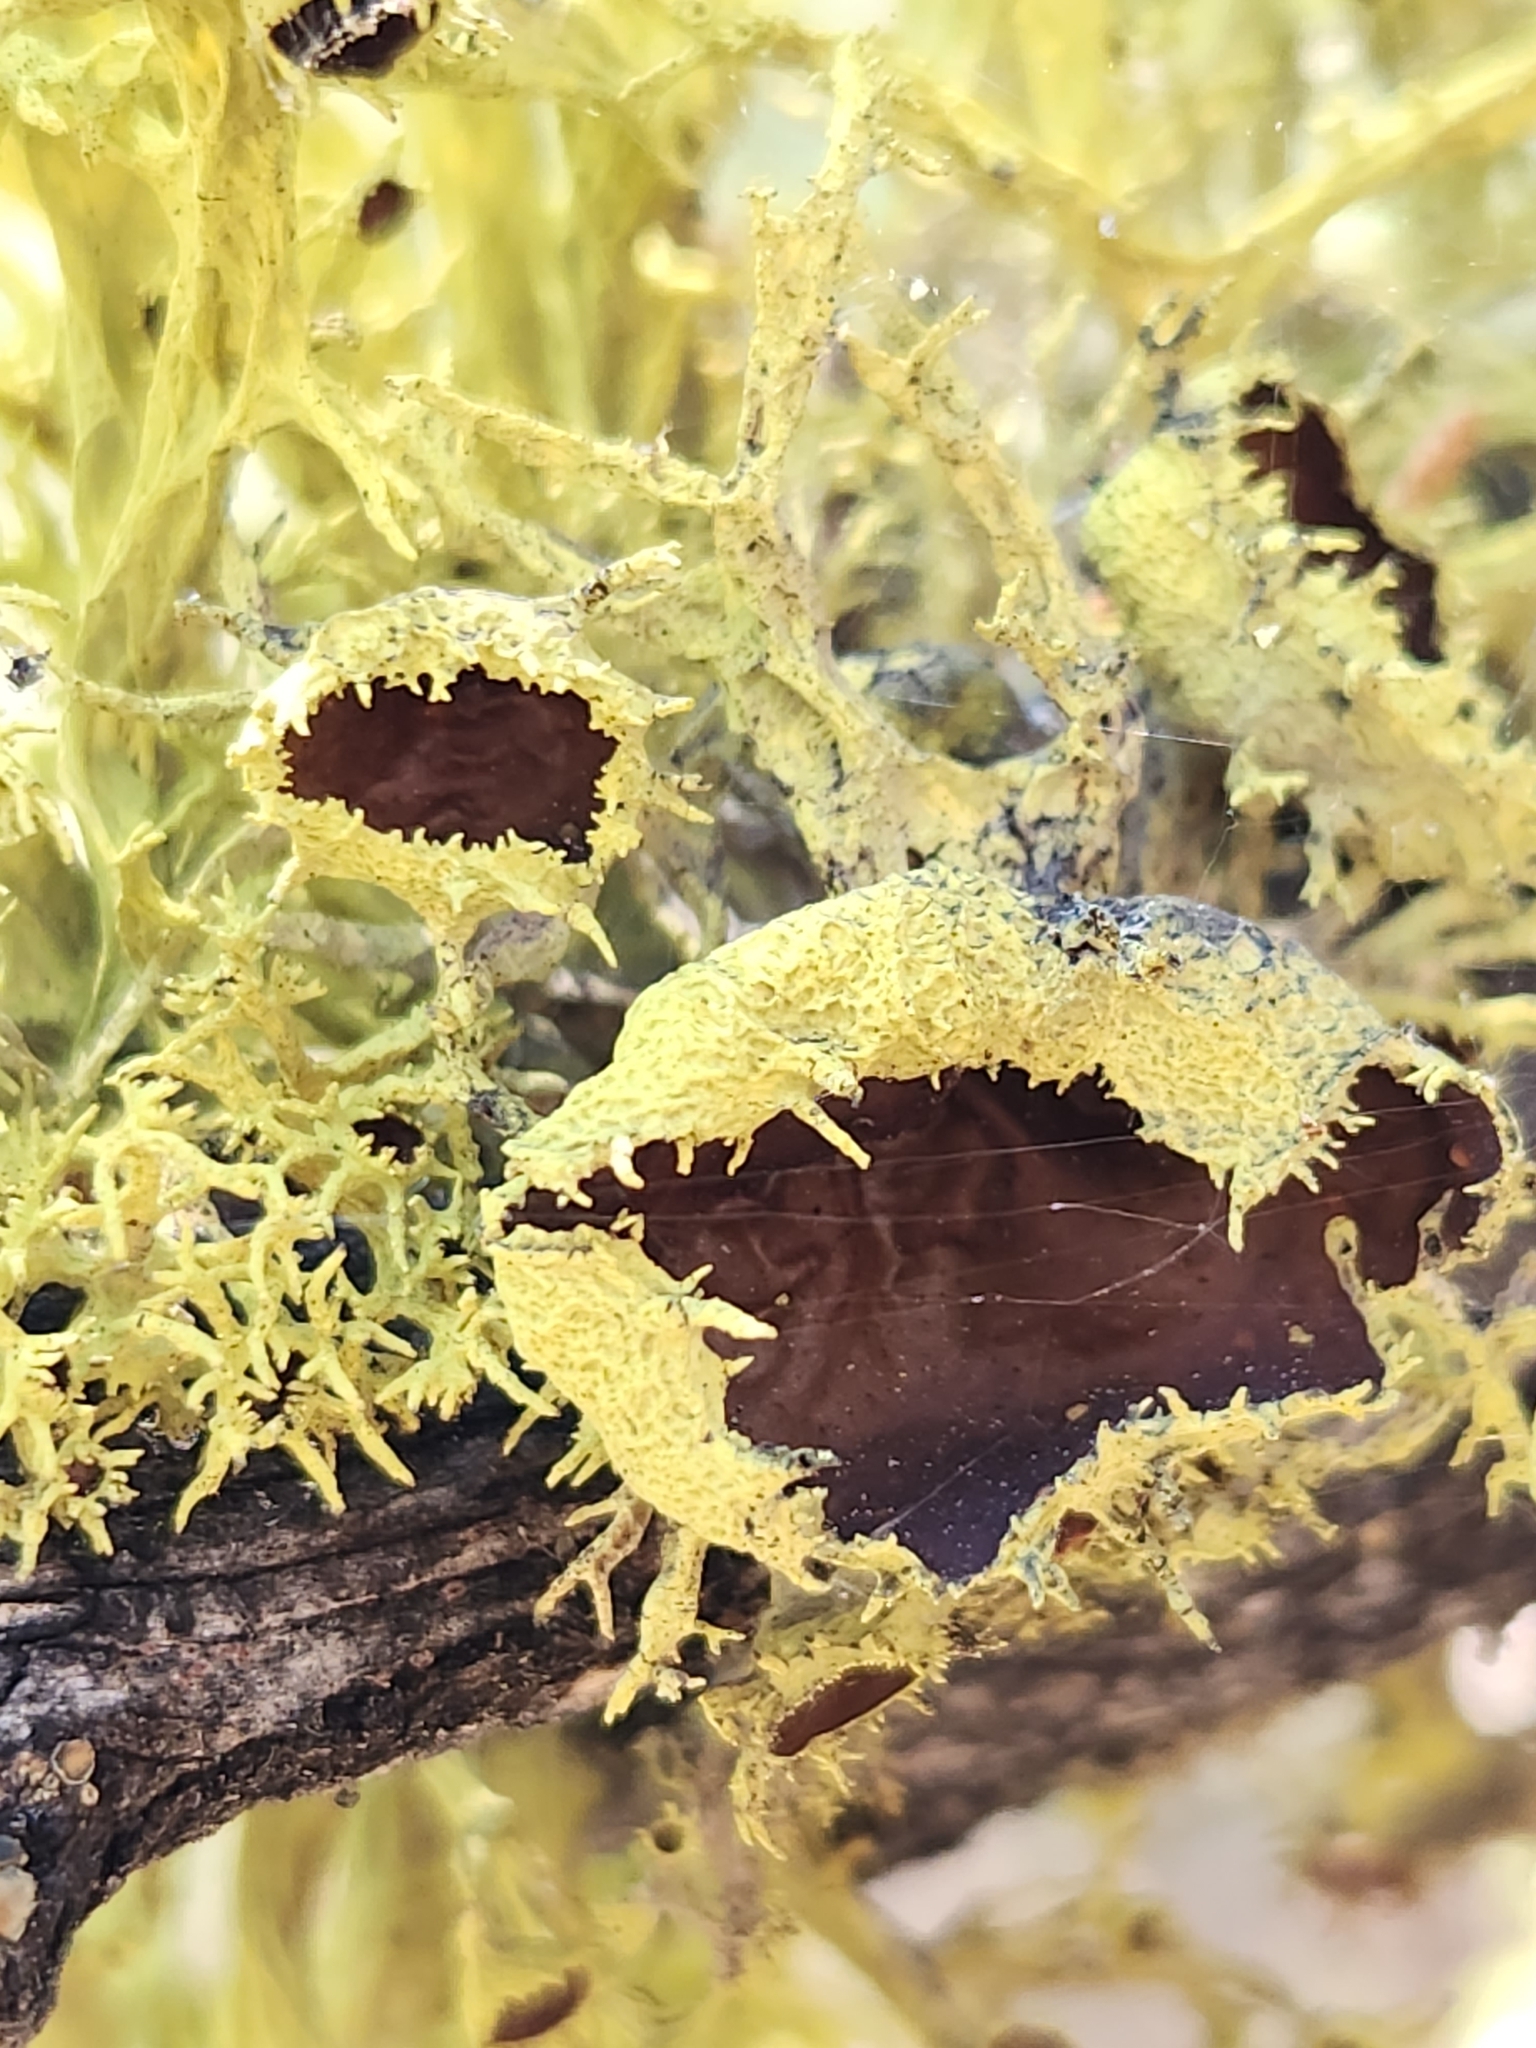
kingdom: Fungi
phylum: Ascomycota
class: Lecanoromycetes
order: Lecanorales
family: Parmeliaceae
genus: Letharia
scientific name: Letharia columbiana
